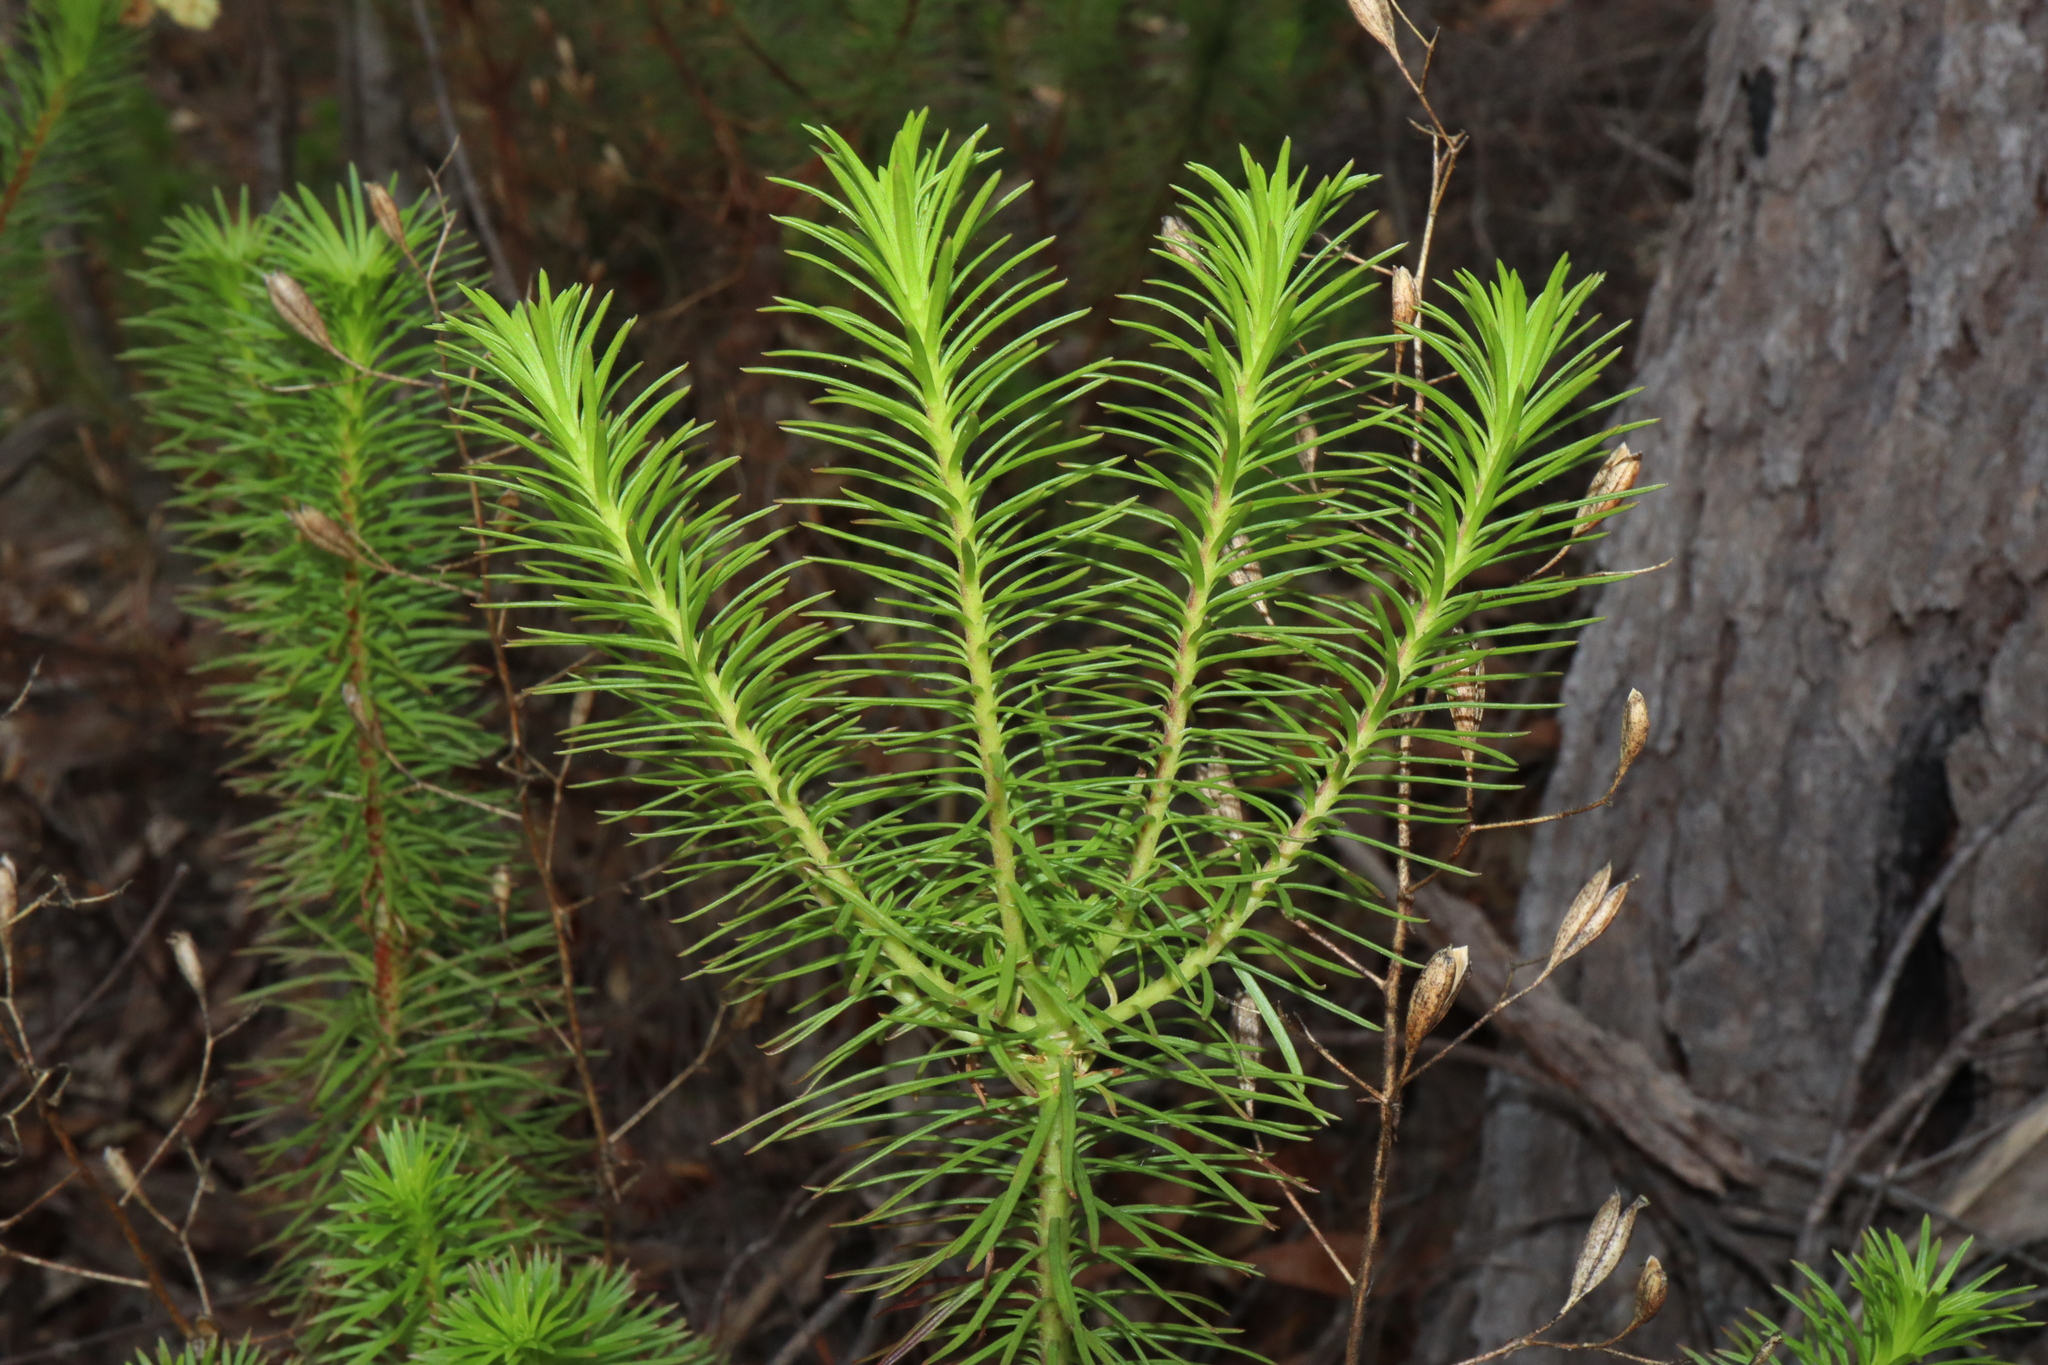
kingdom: Plantae
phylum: Tracheophyta
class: Magnoliopsida
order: Asterales
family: Stylidiaceae
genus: Stylidium
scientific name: Stylidium laricifolium
